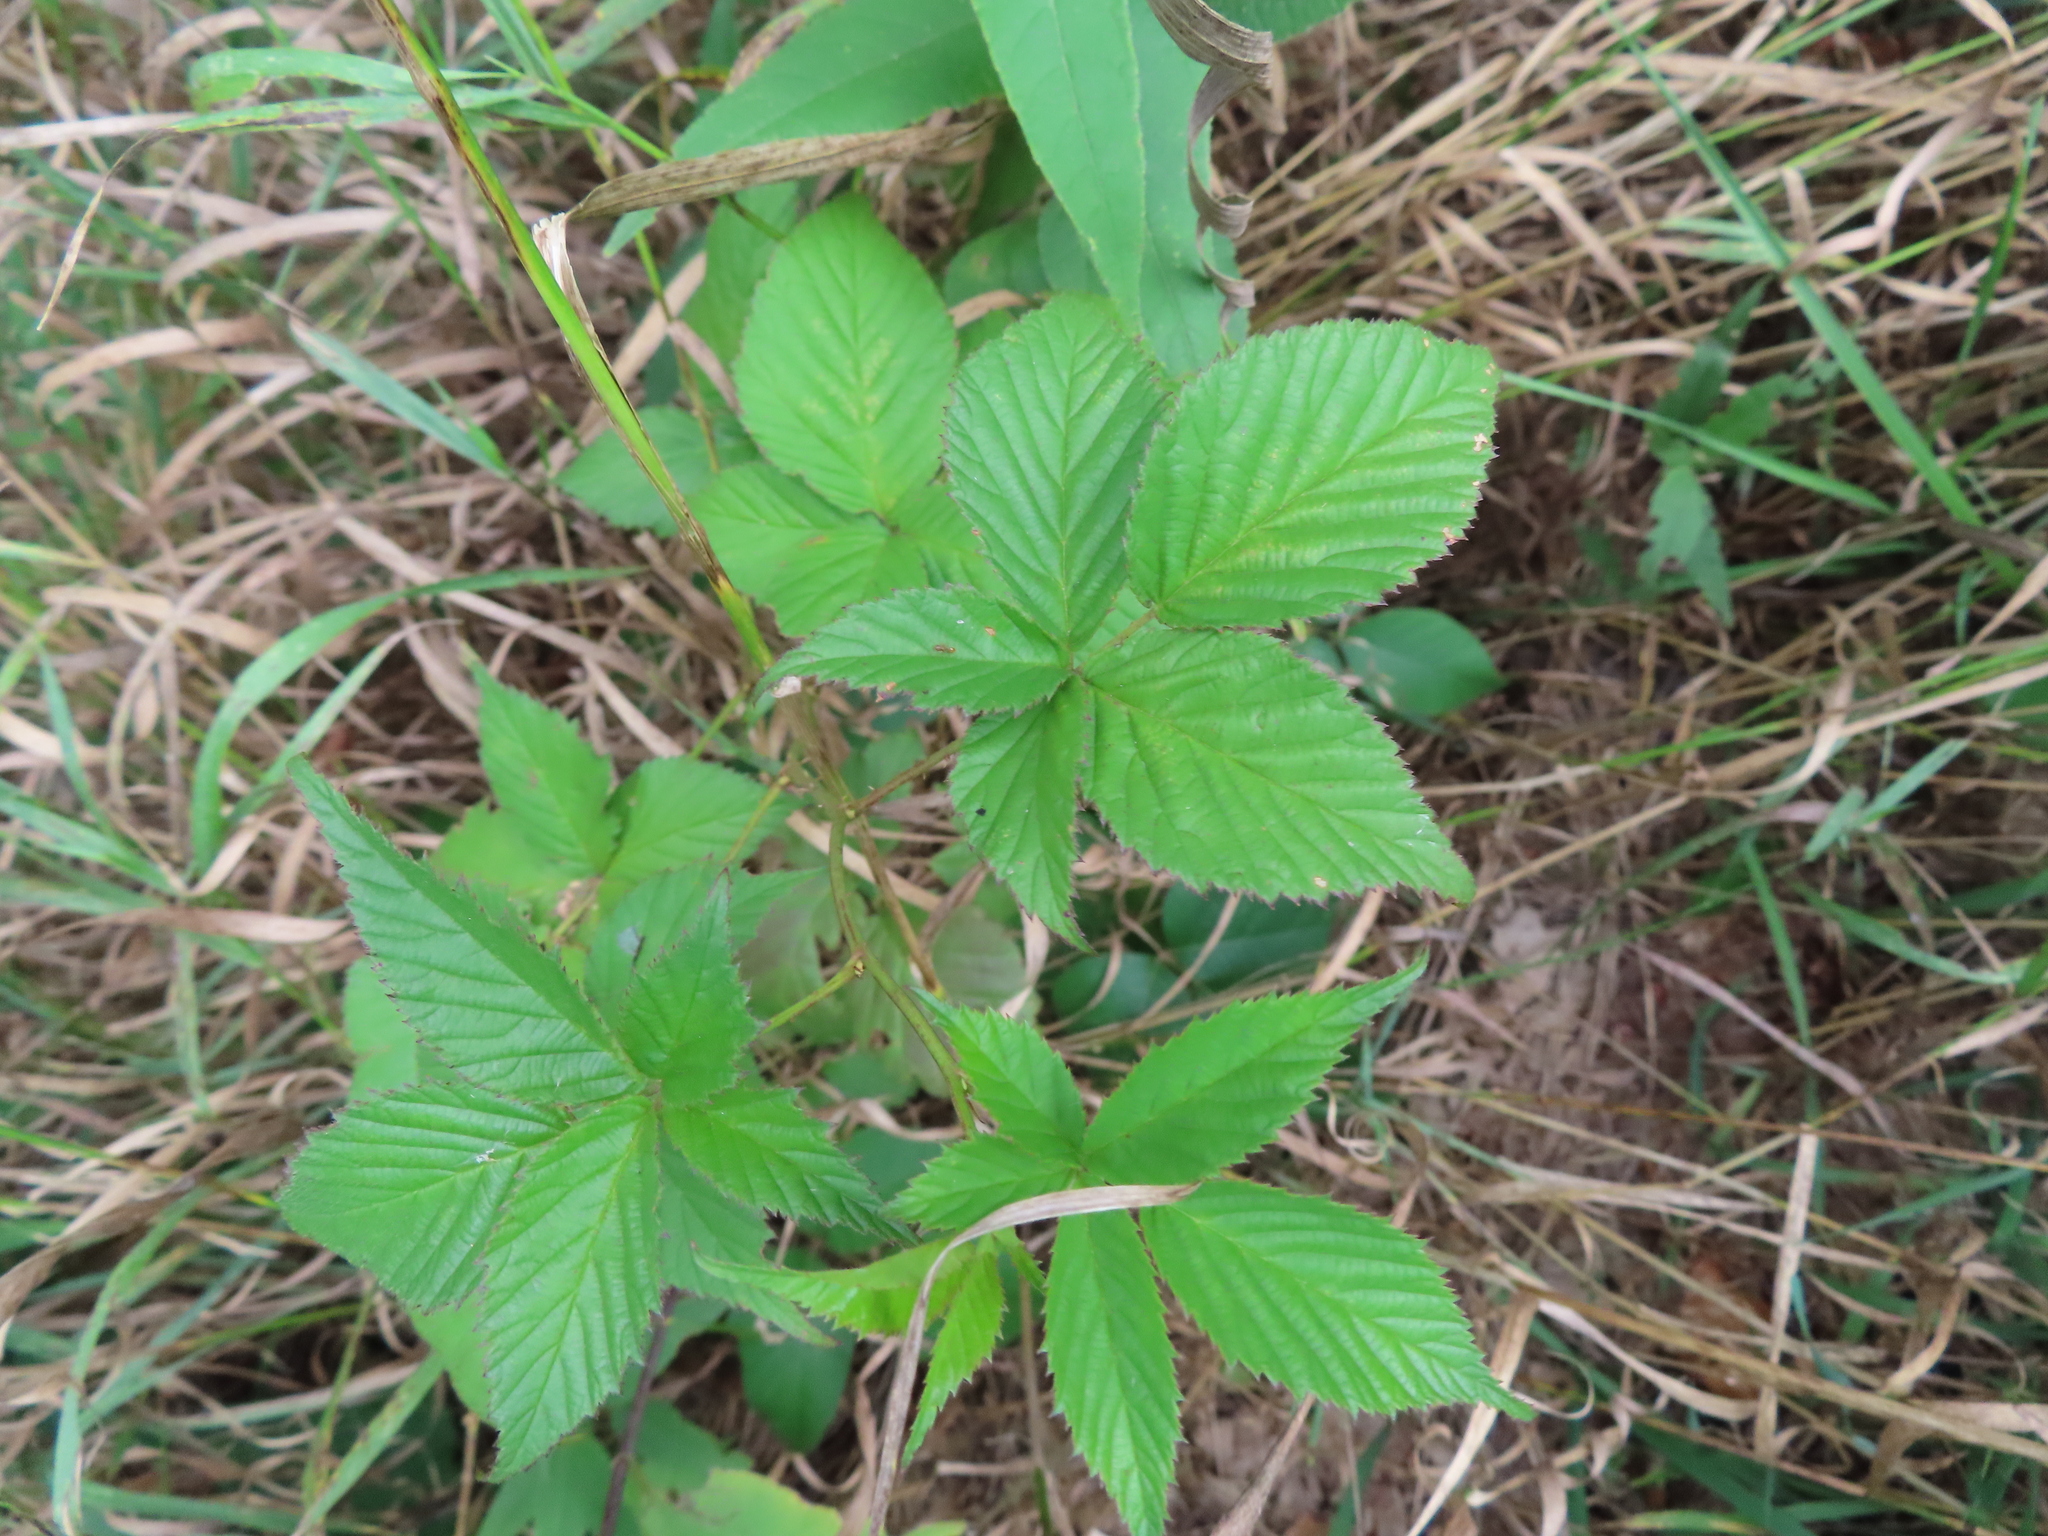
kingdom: Plantae
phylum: Tracheophyta
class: Magnoliopsida
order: Rosales
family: Rosaceae
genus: Rubus
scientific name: Rubus allegheniensis
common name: Allegheny blackberry
